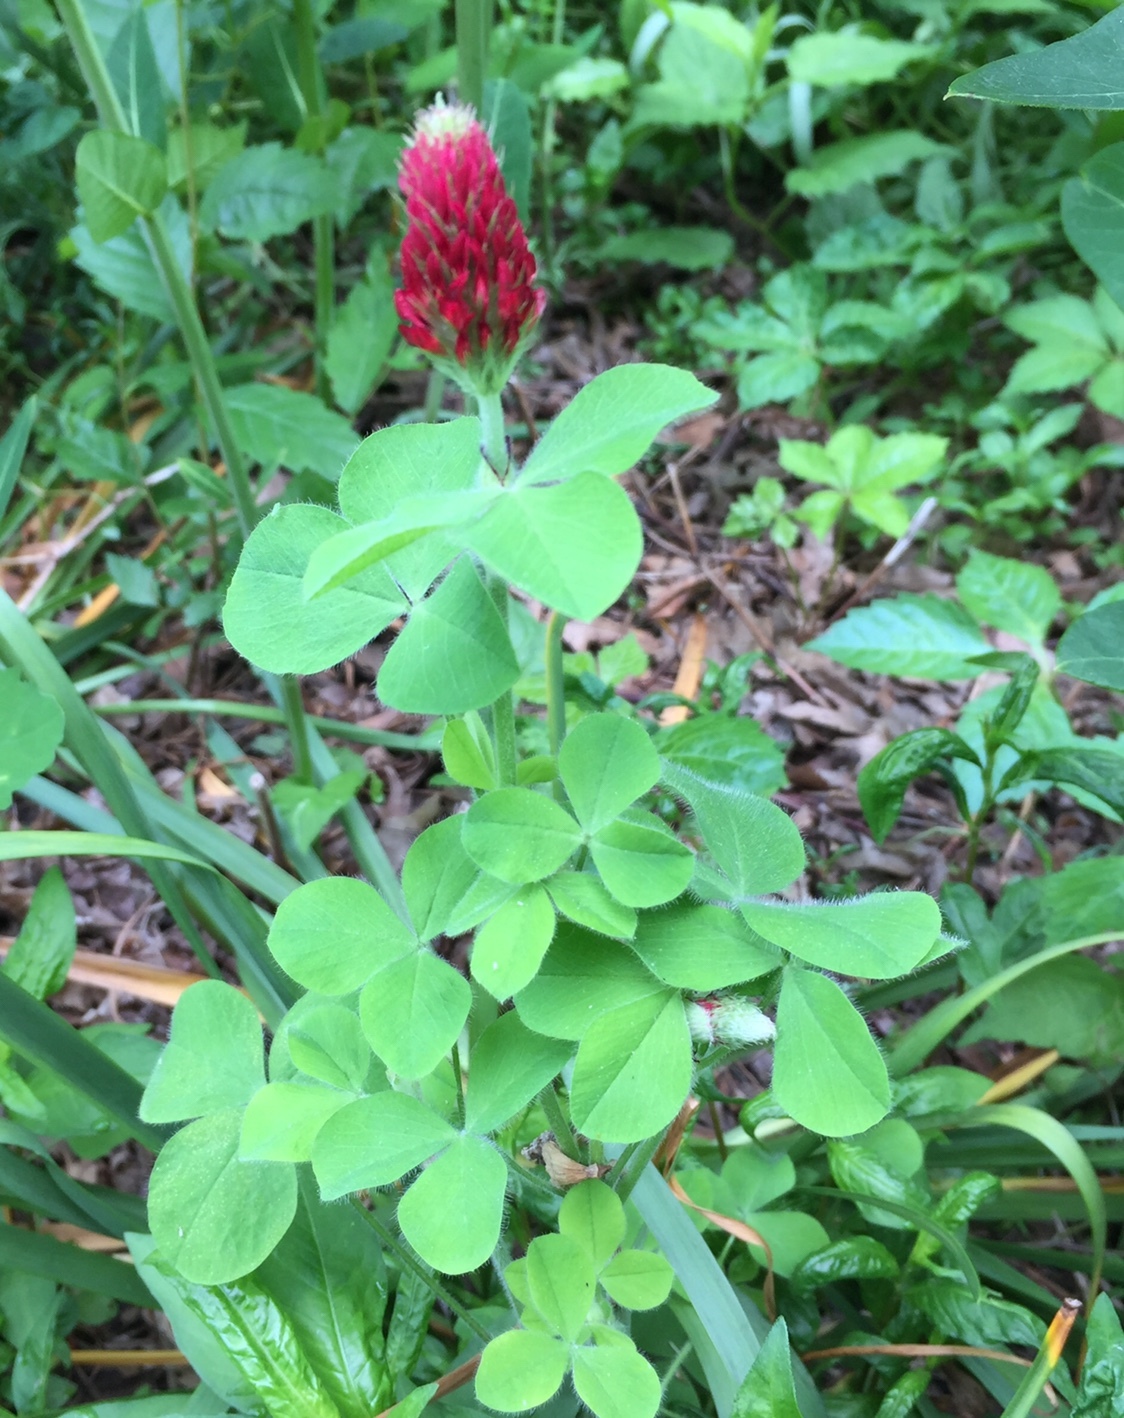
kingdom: Plantae
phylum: Tracheophyta
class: Magnoliopsida
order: Fabales
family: Fabaceae
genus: Trifolium
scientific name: Trifolium incarnatum
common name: Crimson clover
